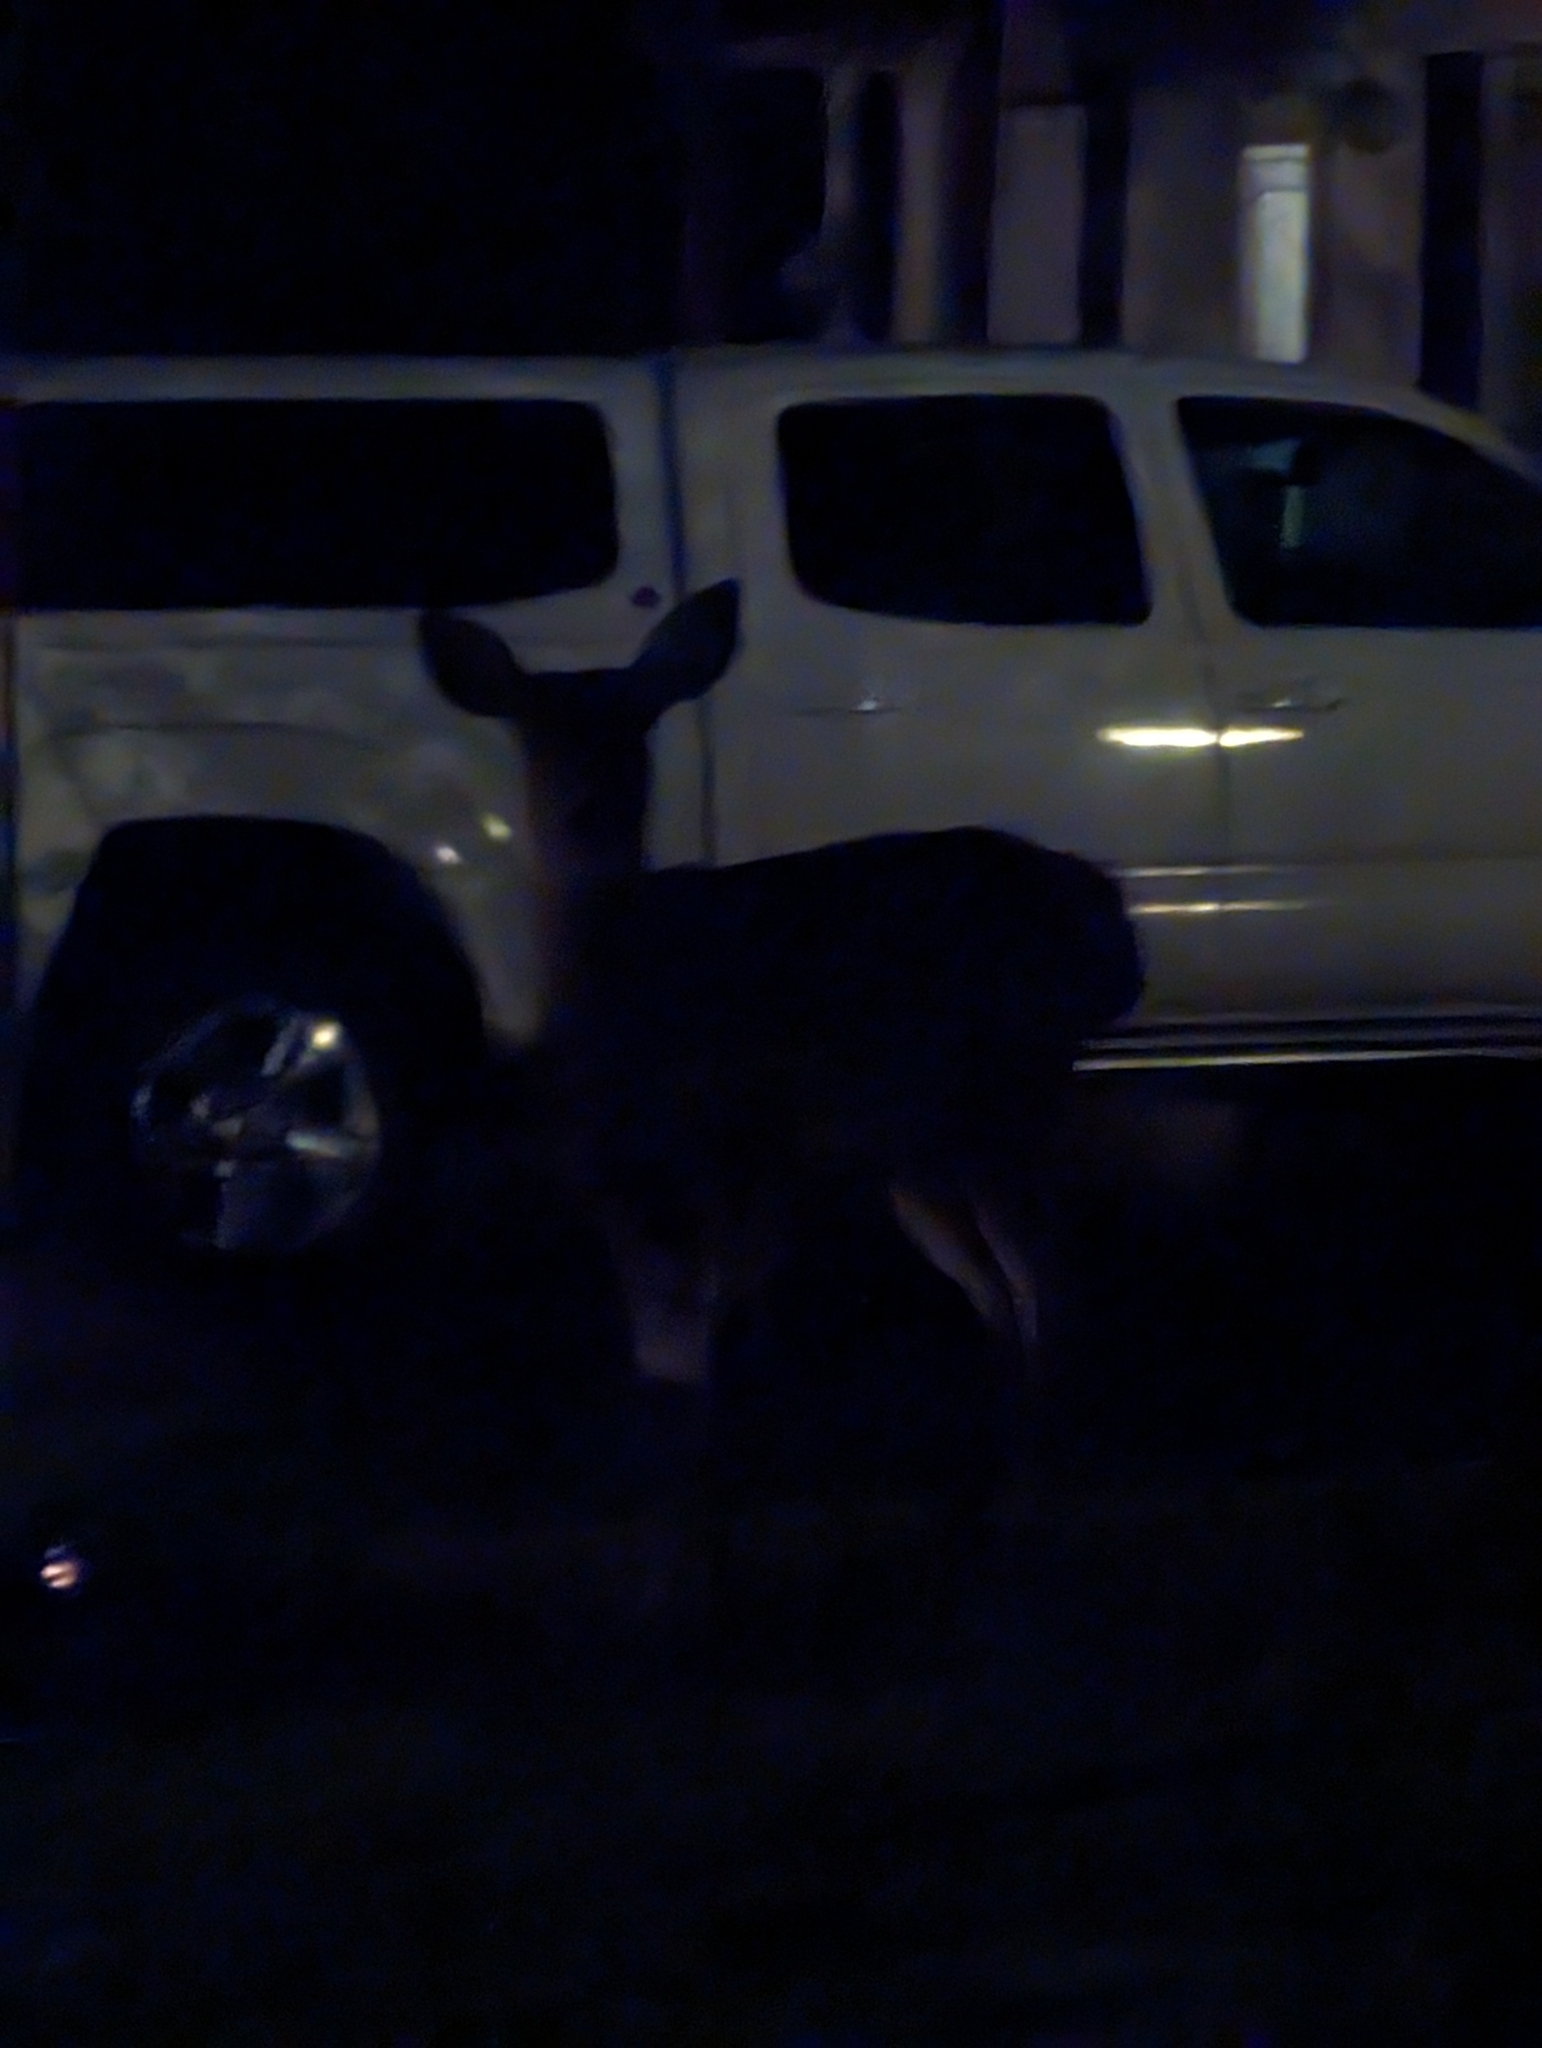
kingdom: Animalia
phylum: Chordata
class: Mammalia
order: Artiodactyla
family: Cervidae
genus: Odocoileus
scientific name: Odocoileus hemionus
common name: Mule deer
